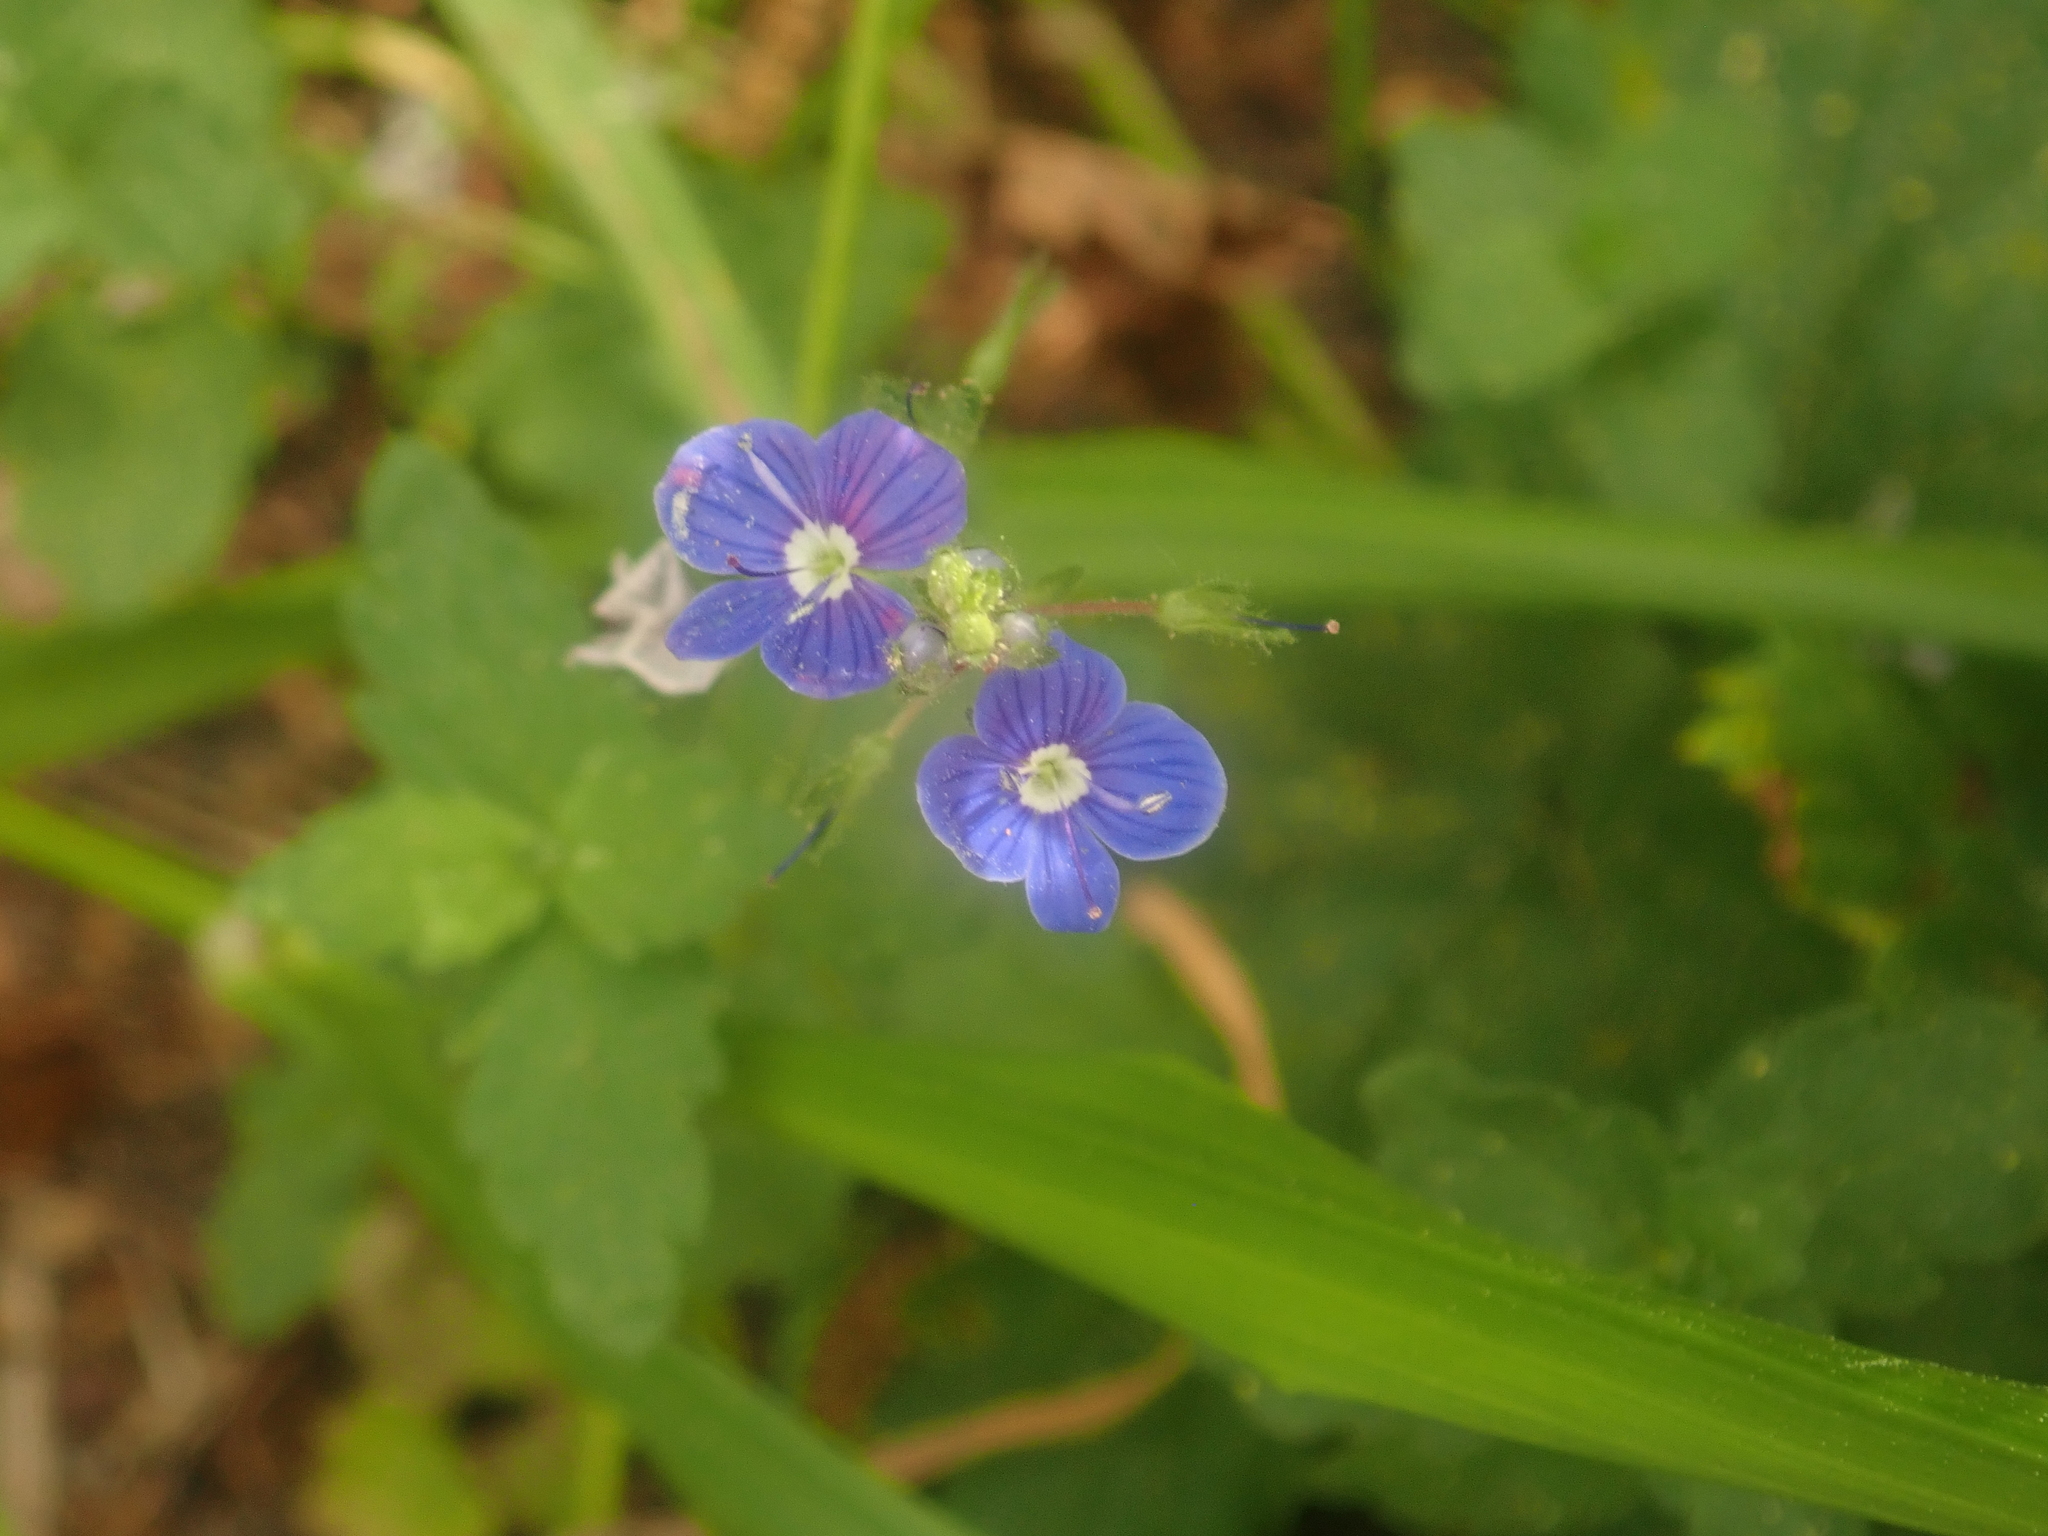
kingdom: Plantae
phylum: Tracheophyta
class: Magnoliopsida
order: Lamiales
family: Plantaginaceae
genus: Veronica
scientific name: Veronica chamaedrys
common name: Germander speedwell
